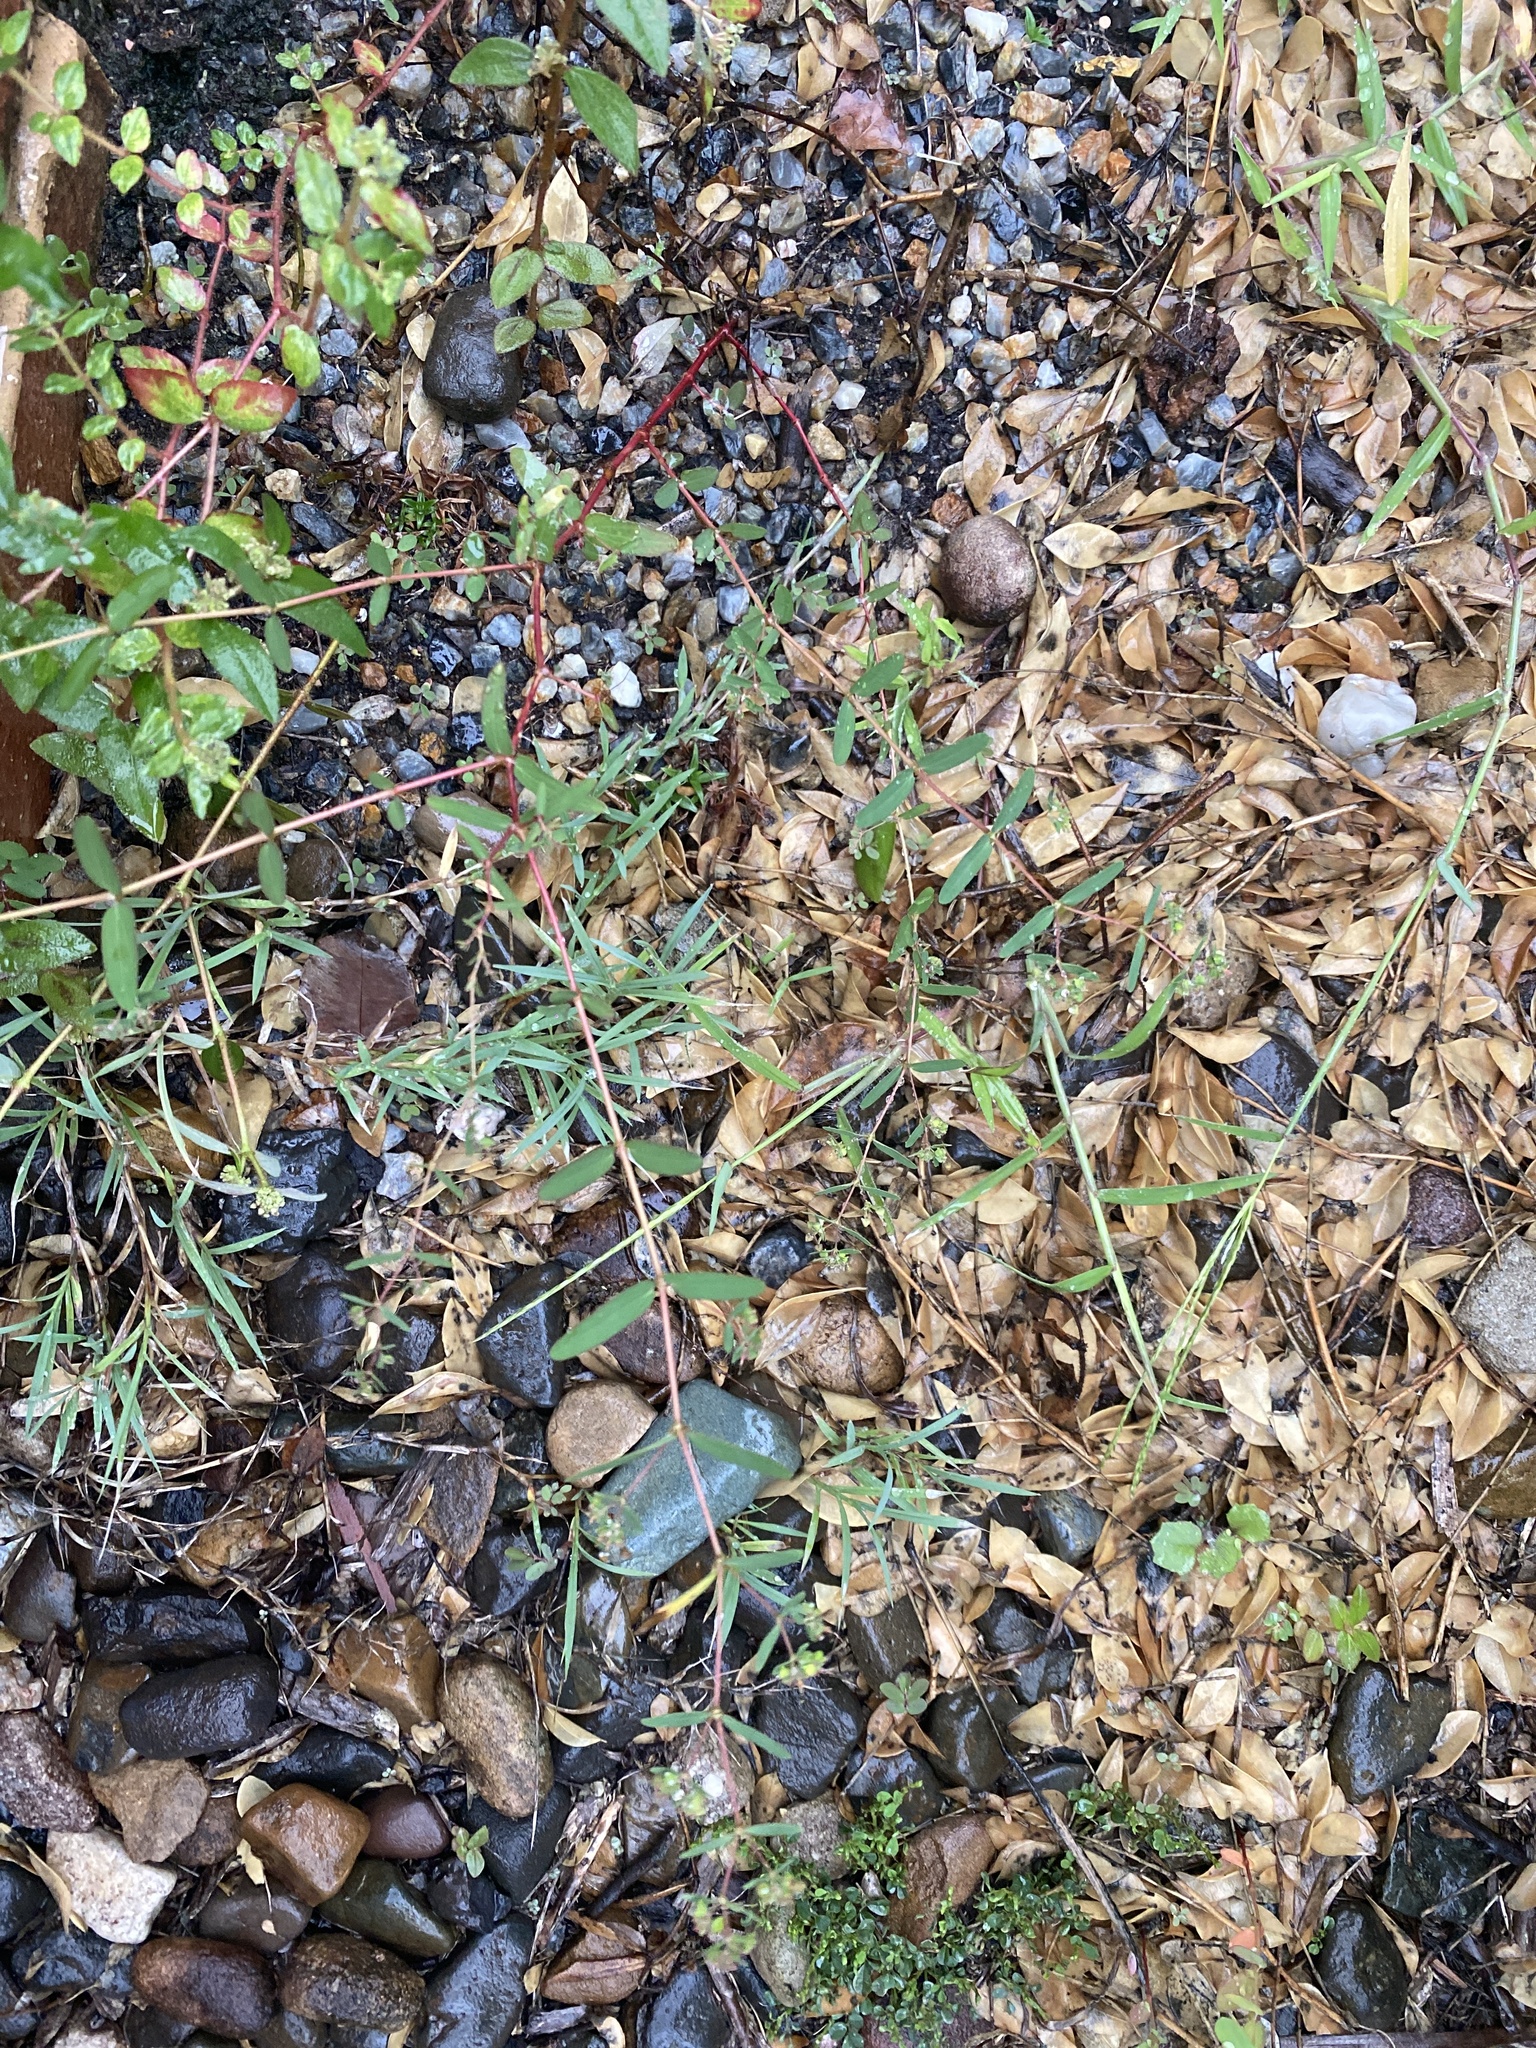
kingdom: Plantae
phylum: Tracheophyta
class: Magnoliopsida
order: Malpighiales
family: Euphorbiaceae
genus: Euphorbia
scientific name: Euphorbia hyssopifolia
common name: Hyssopleaf sandmat
